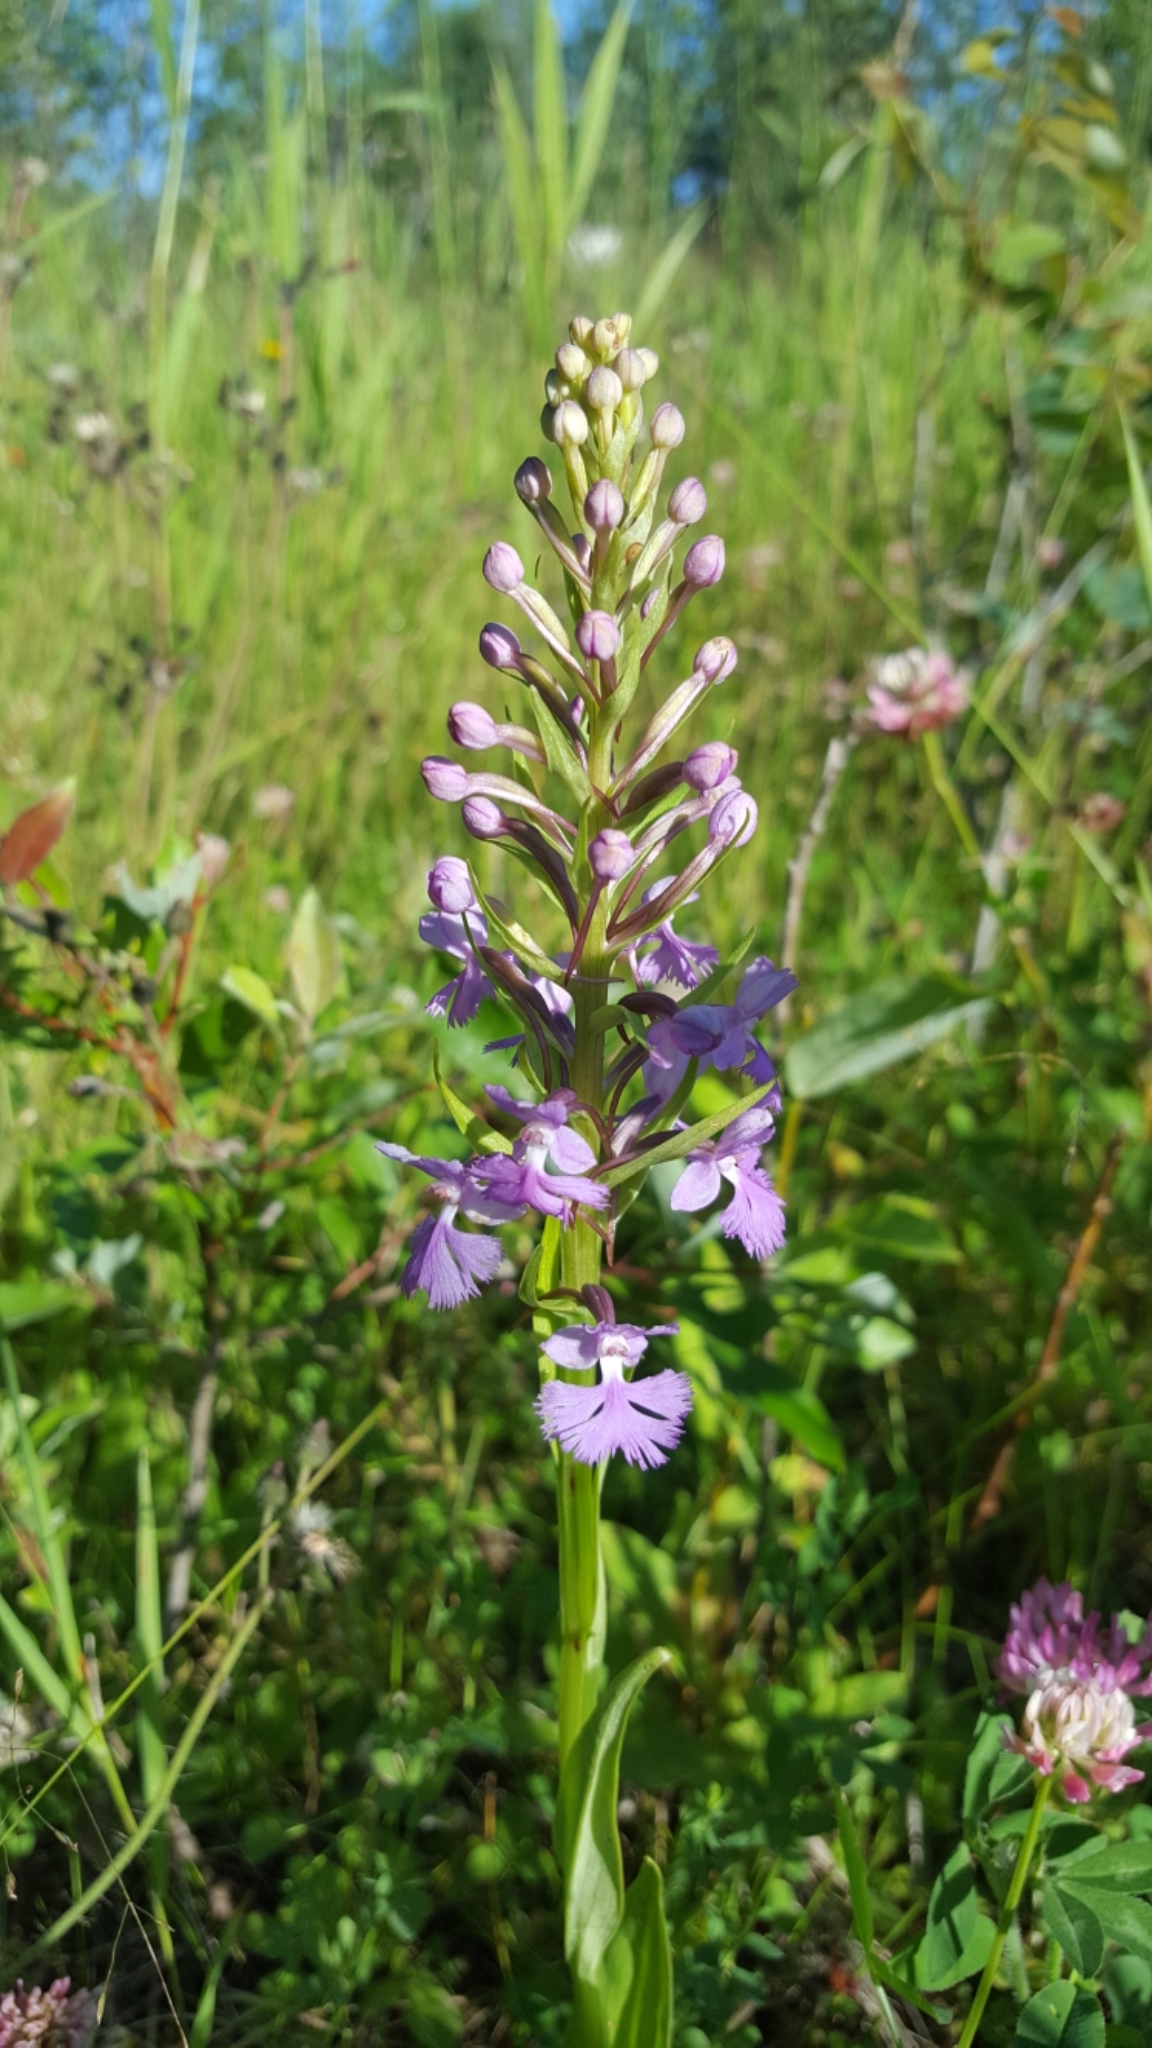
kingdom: Plantae
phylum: Tracheophyta
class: Liliopsida
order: Asparagales
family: Orchidaceae
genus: Platanthera
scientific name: Platanthera psycodes
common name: Lesser purple fringed orchid
